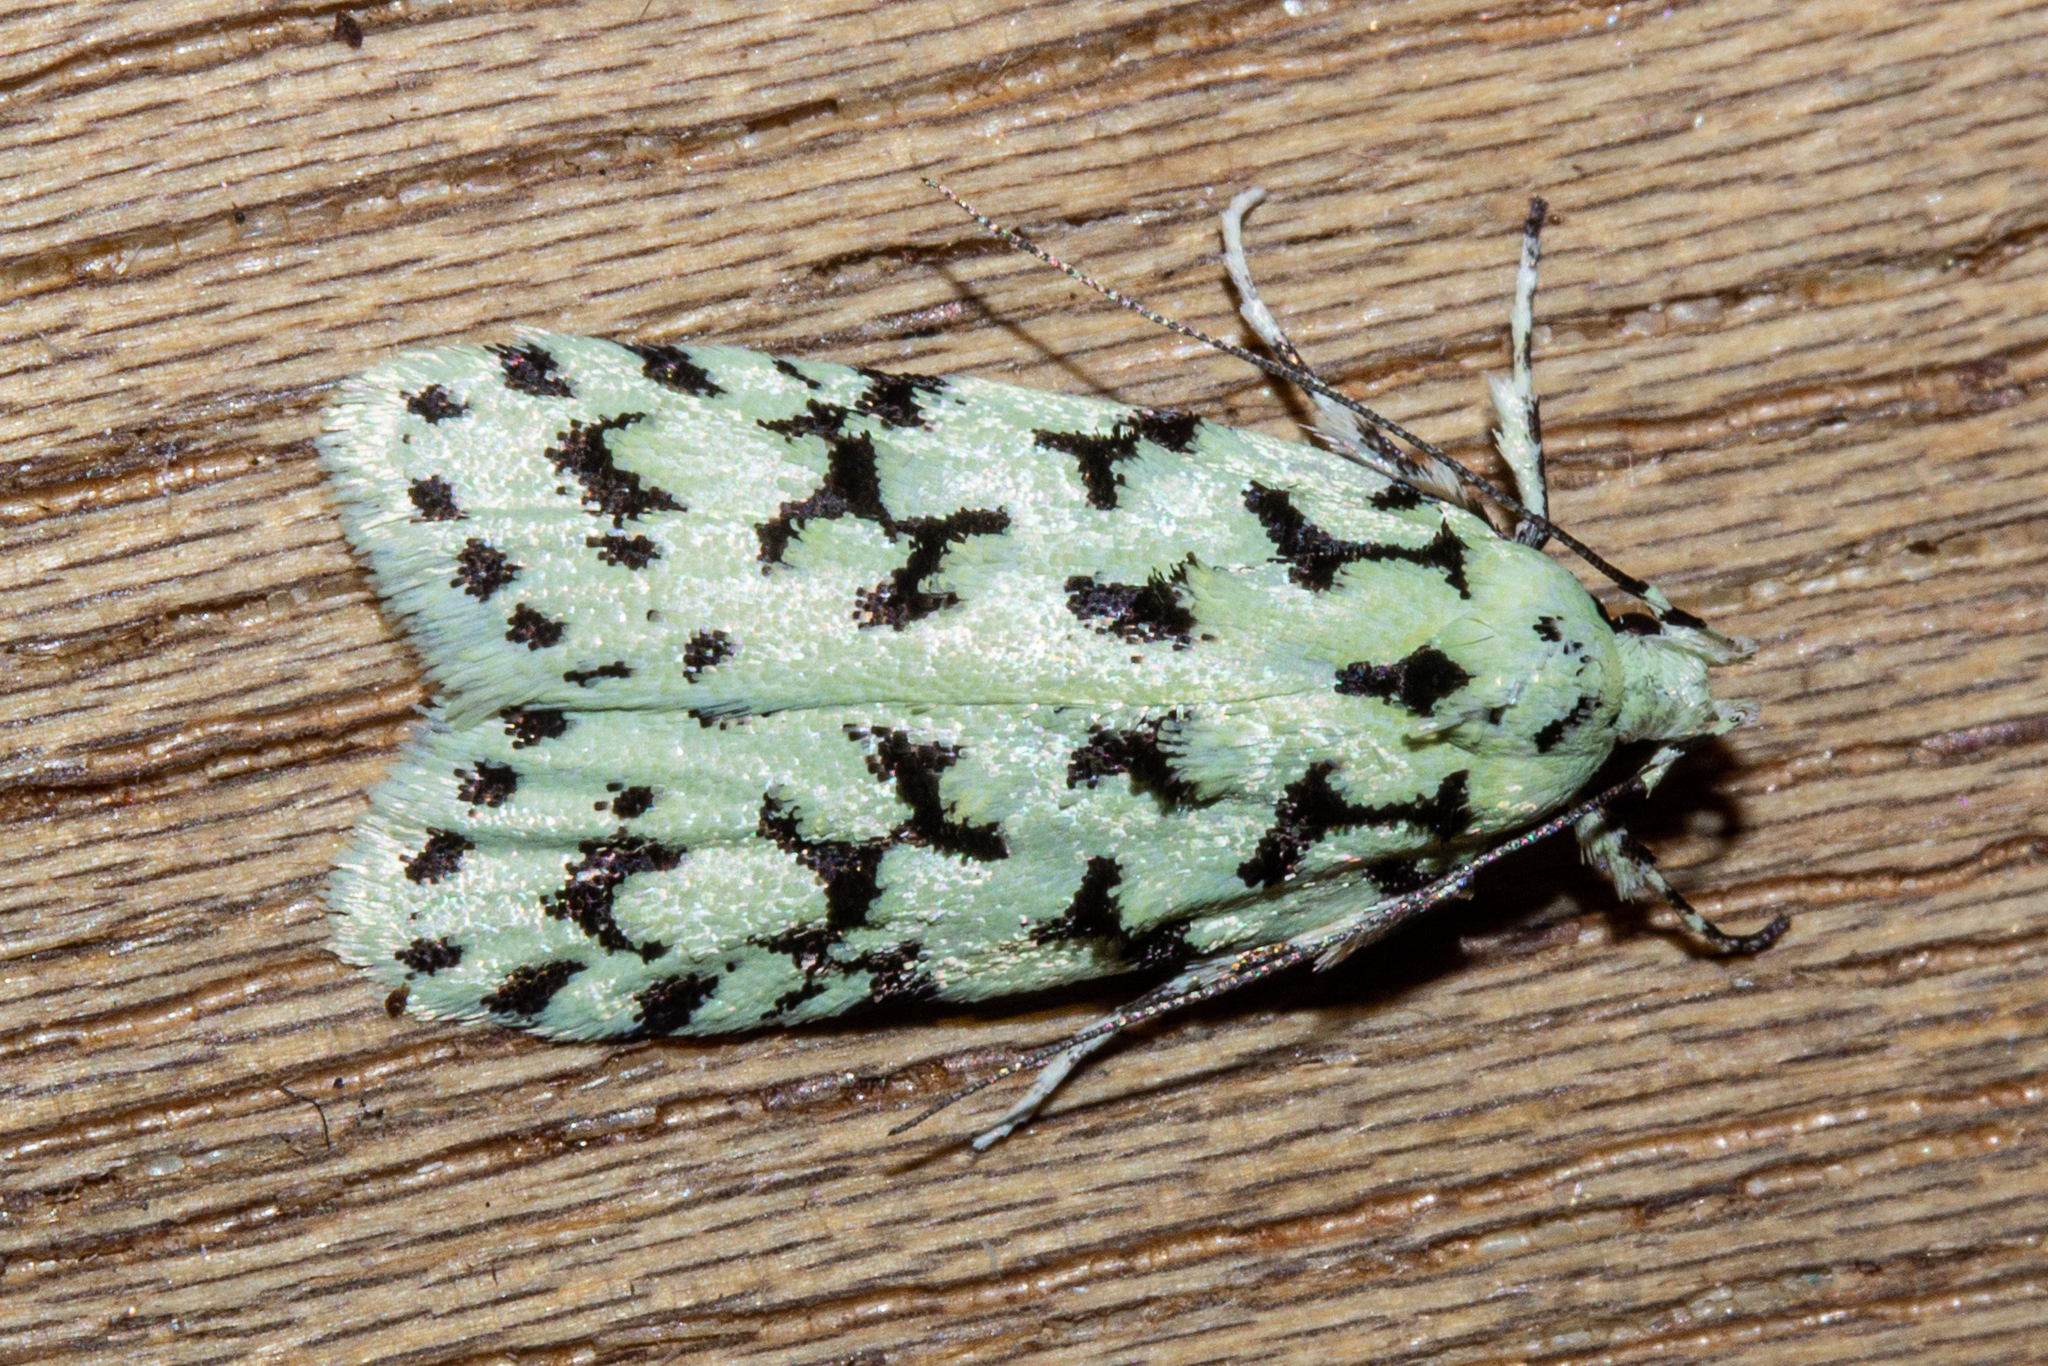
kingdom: Animalia
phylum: Arthropoda
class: Insecta
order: Lepidoptera
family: Oecophoridae
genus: Izatha
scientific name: Izatha huttoni
